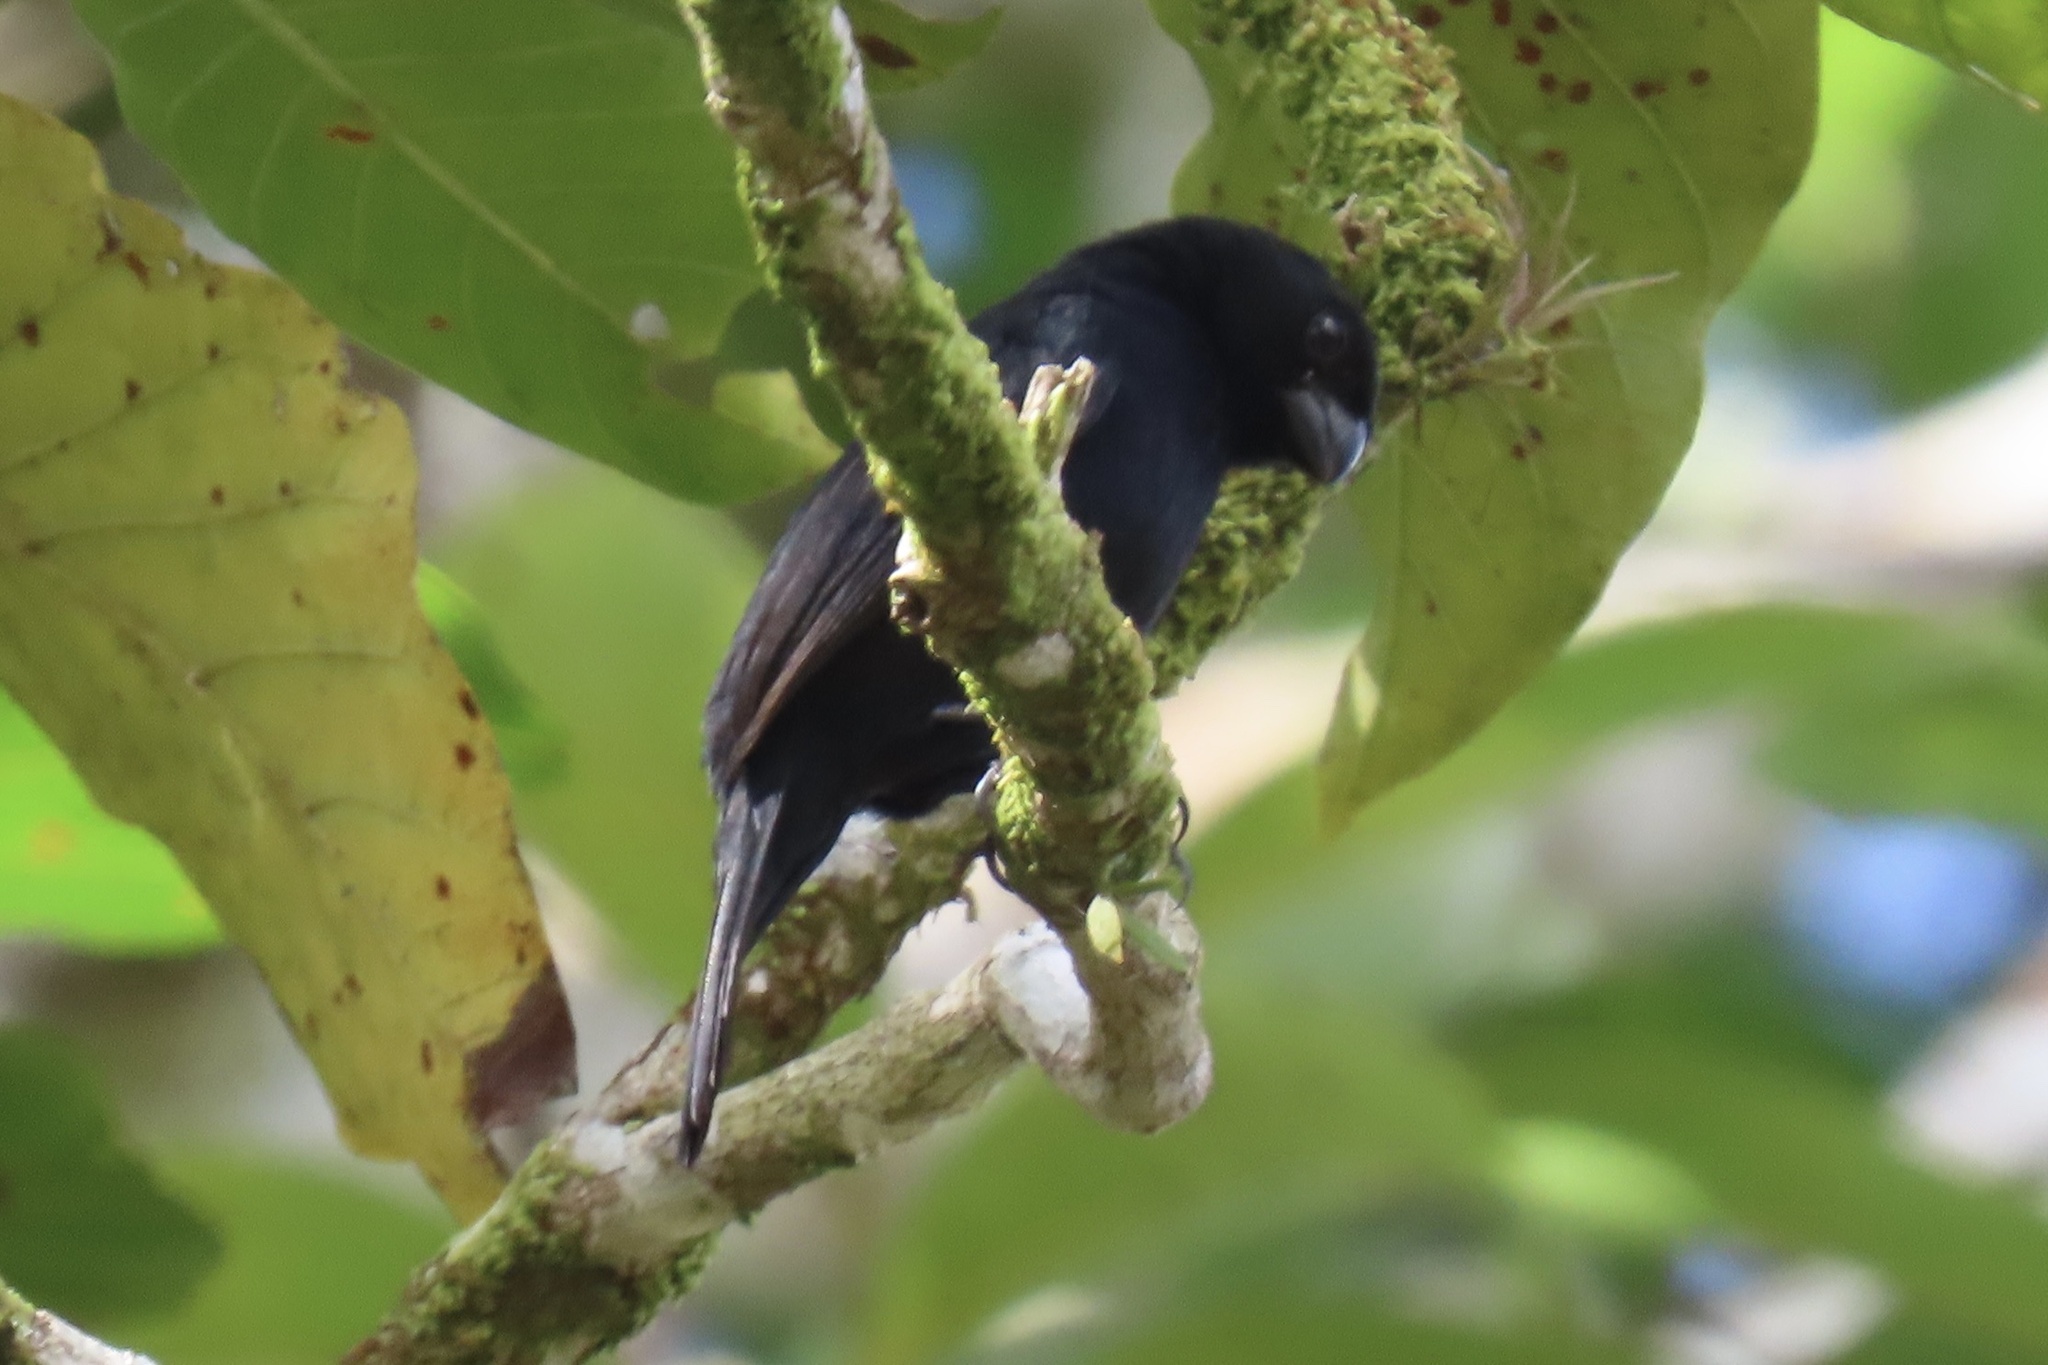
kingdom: Animalia
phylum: Chordata
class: Aves
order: Passeriformes
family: Thraupidae
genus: Sporophila
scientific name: Sporophila corvina
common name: Variable seedeater
